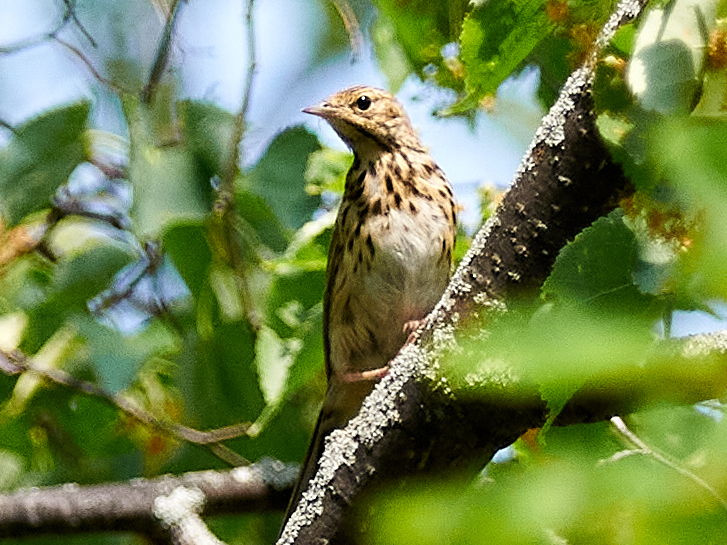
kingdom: Animalia
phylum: Chordata
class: Aves
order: Passeriformes
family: Motacillidae
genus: Anthus
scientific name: Anthus trivialis
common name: Tree pipit
